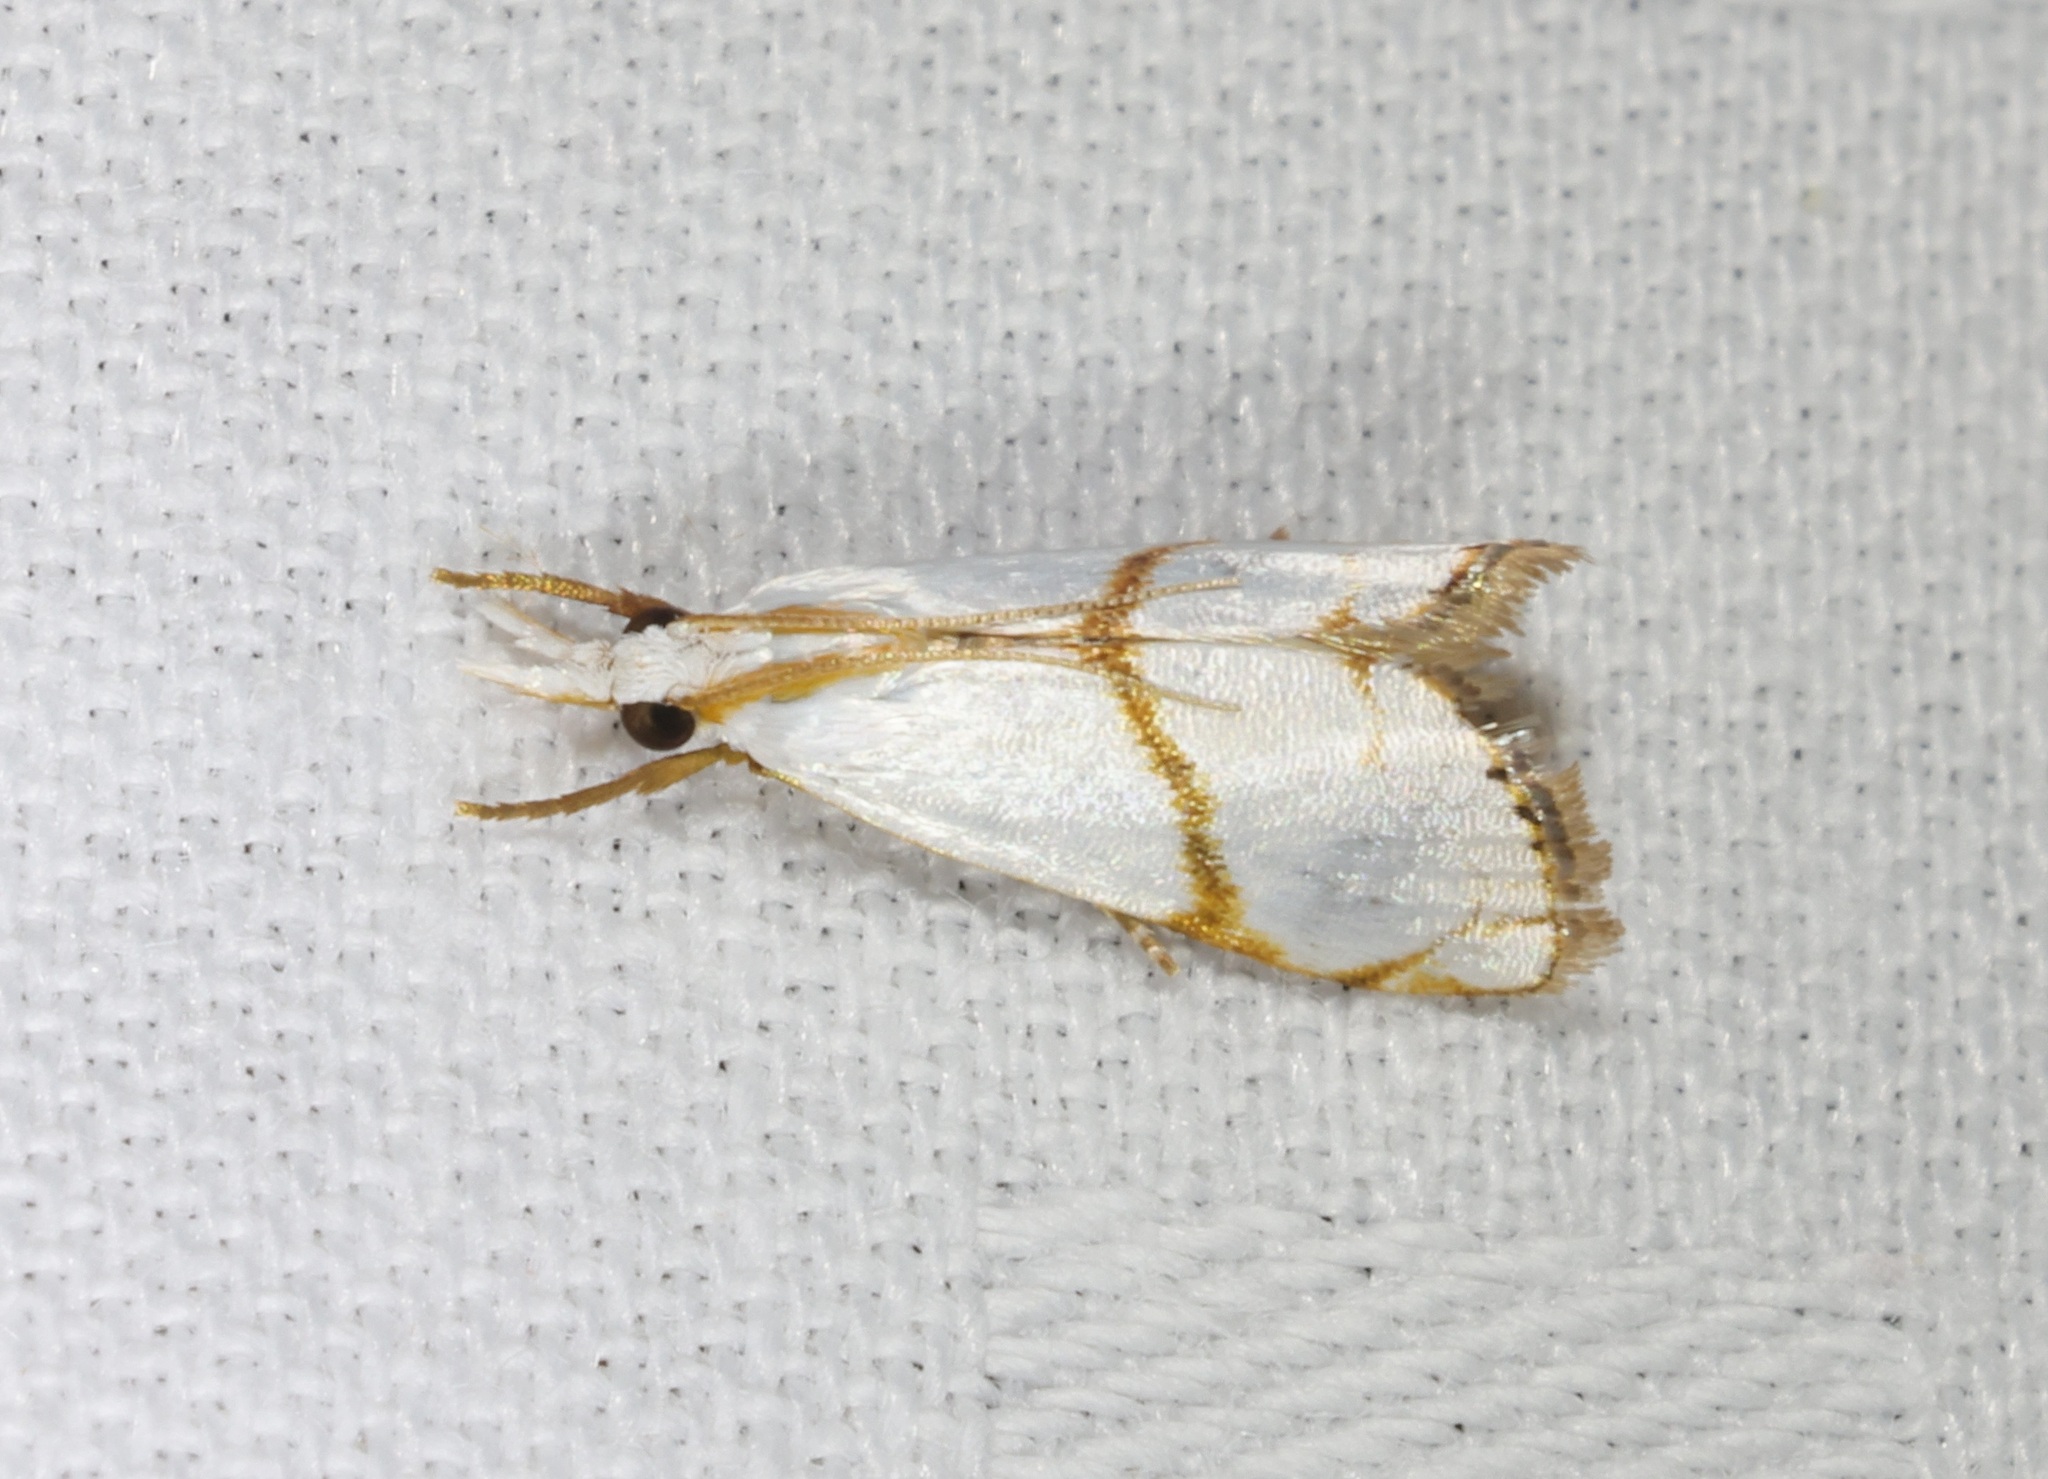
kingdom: Animalia
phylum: Arthropoda
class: Insecta
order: Lepidoptera
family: Crambidae
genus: Pseudargyria
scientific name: Pseudargyria interruptella
